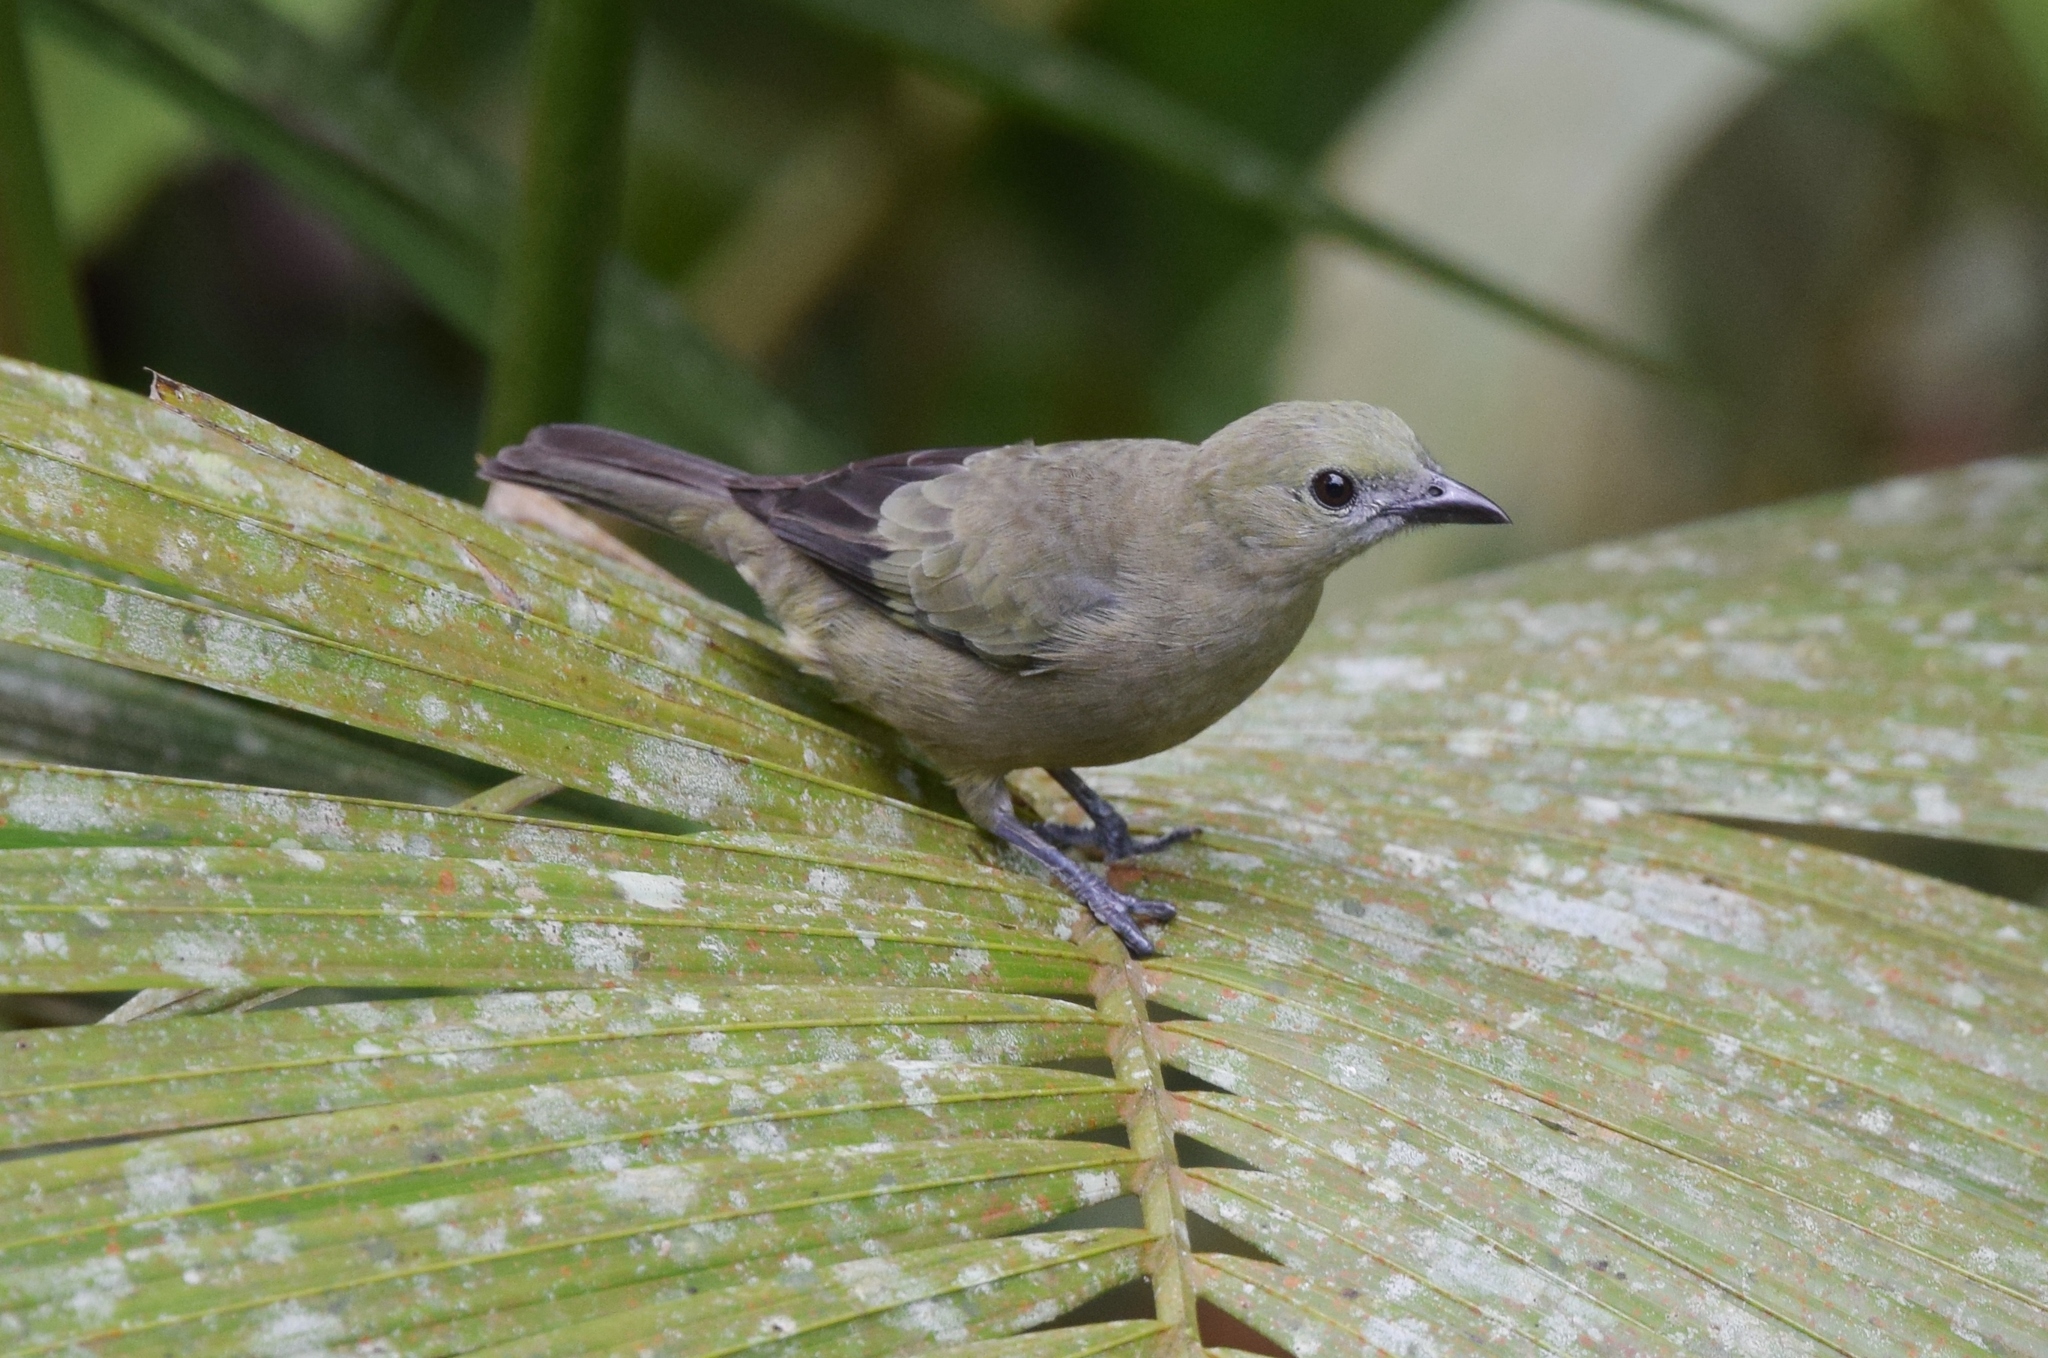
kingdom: Animalia
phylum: Chordata
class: Aves
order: Passeriformes
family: Thraupidae
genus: Thraupis
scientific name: Thraupis palmarum
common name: Palm tanager
